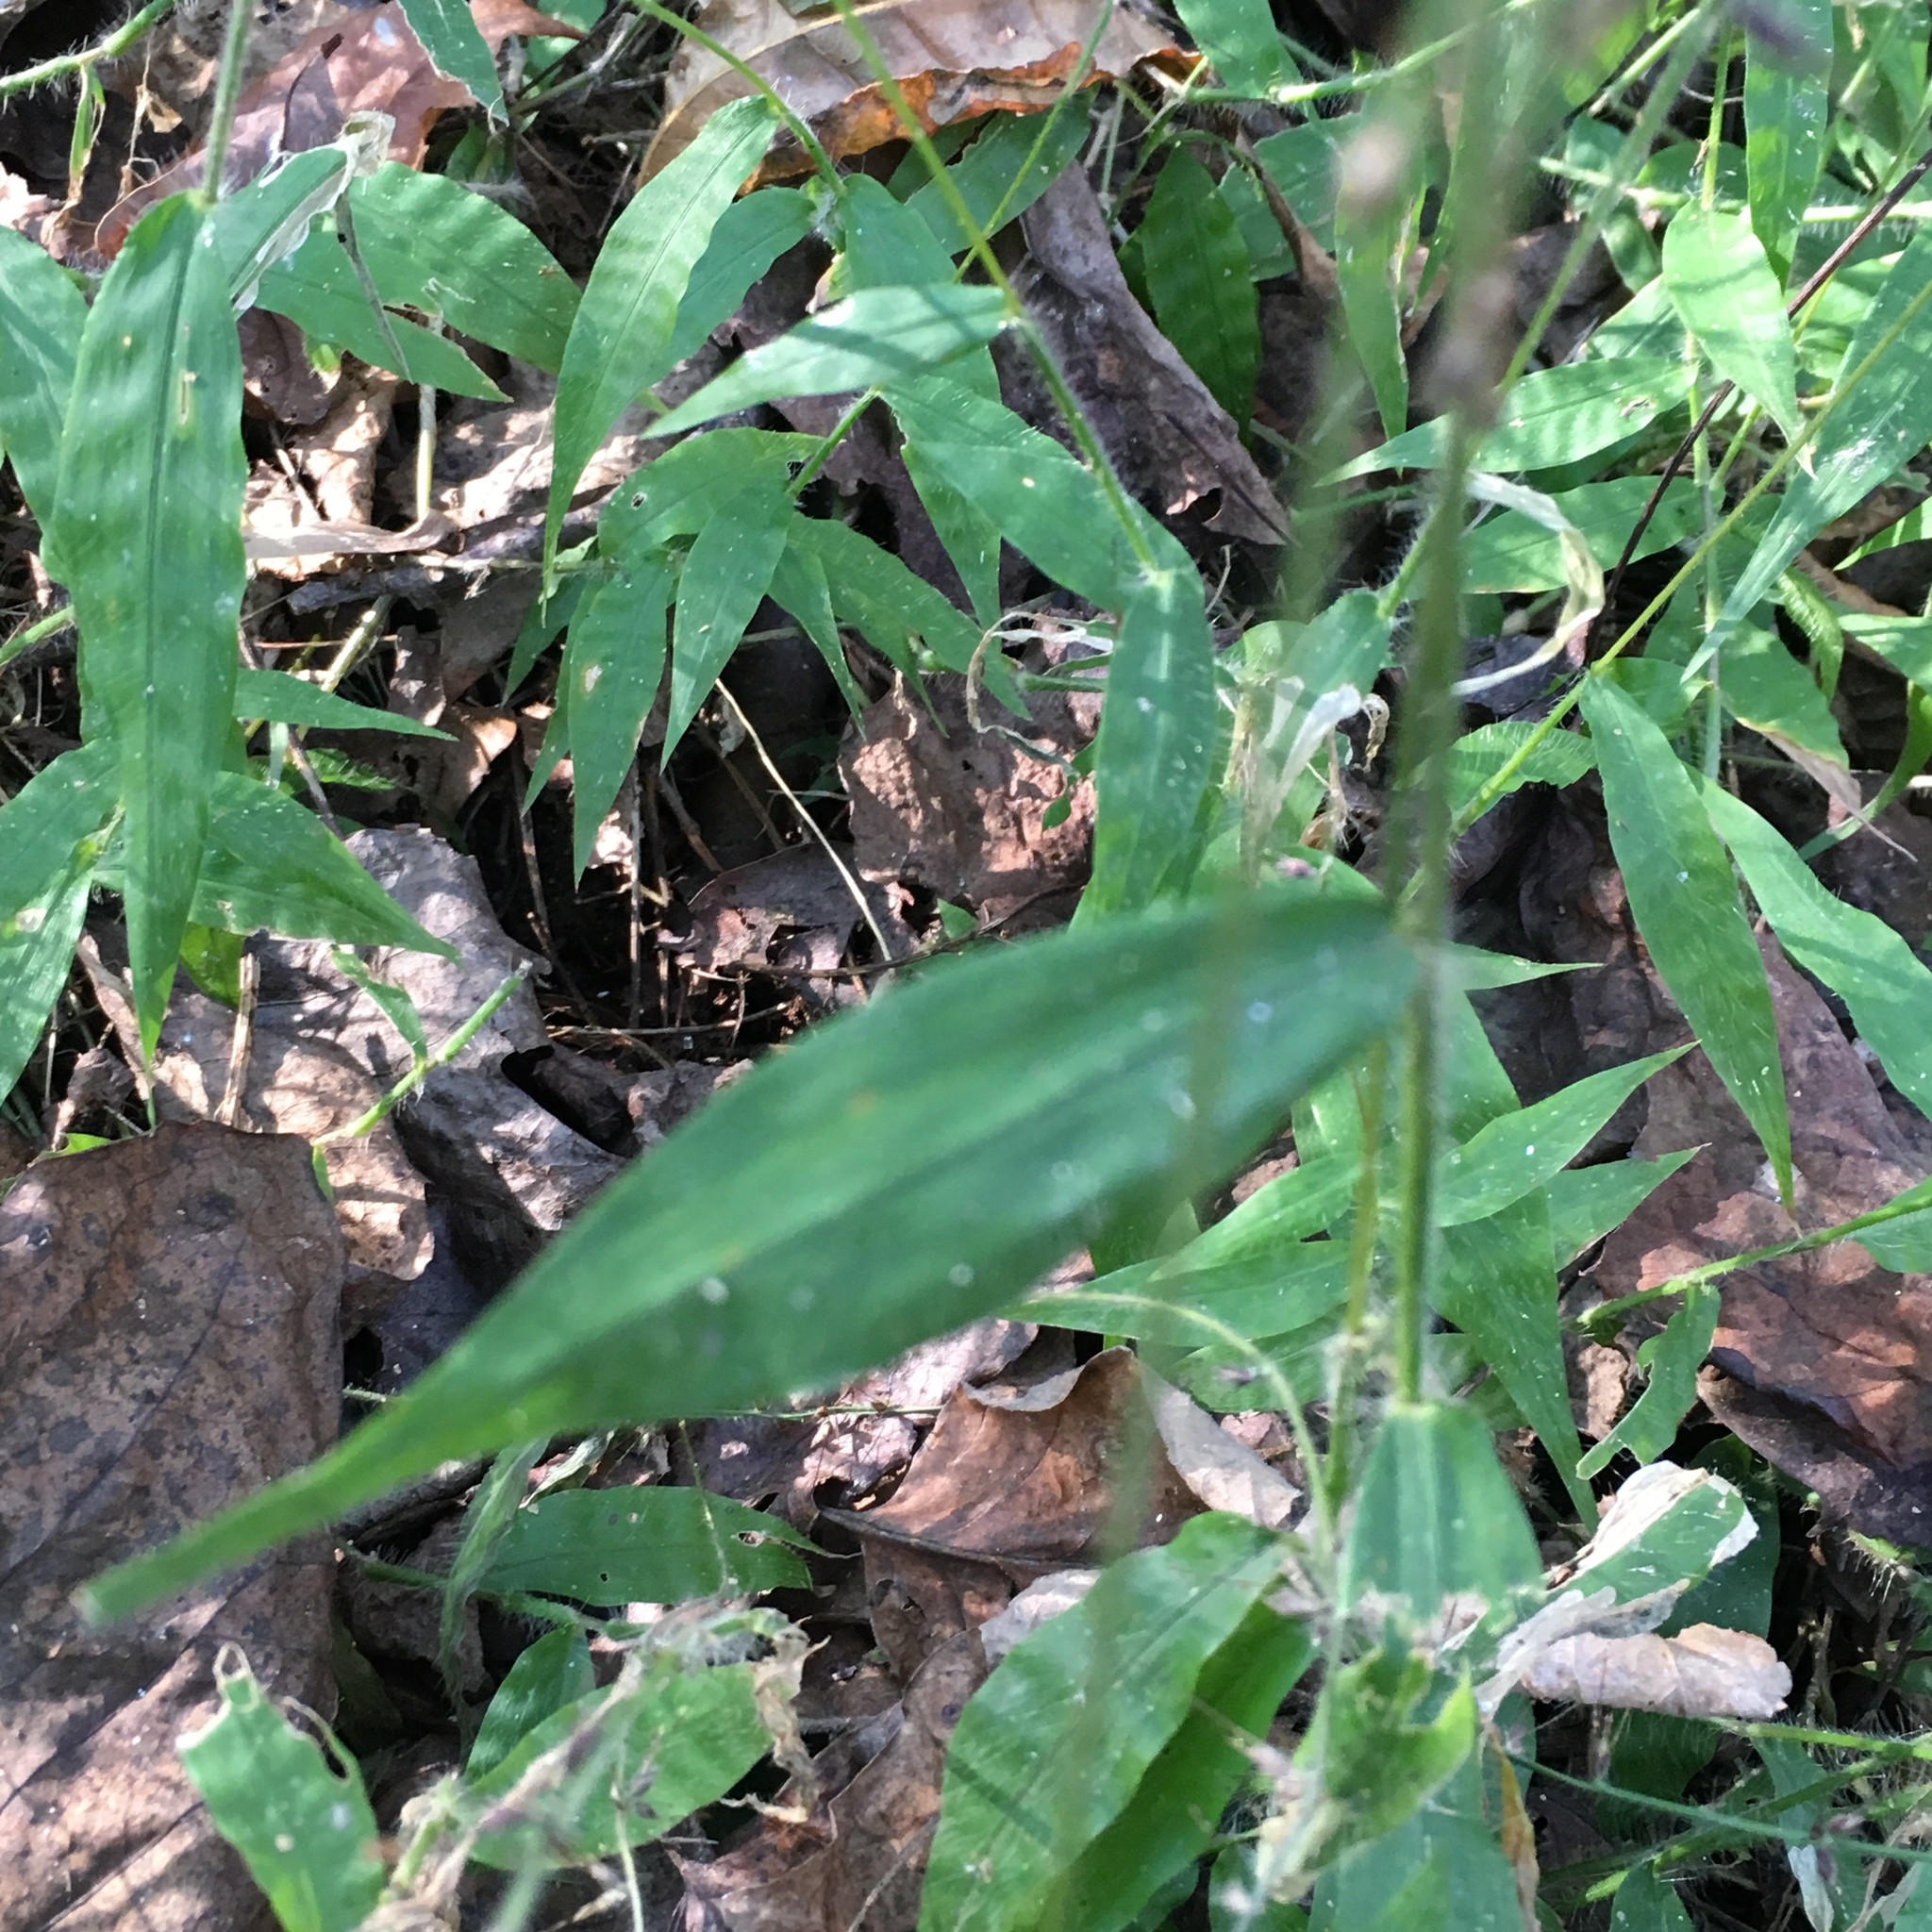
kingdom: Plantae
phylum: Tracheophyta
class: Liliopsida
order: Poales
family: Poaceae
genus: Oplismenus
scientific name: Oplismenus undulatifolius
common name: Wavyleaf basketgrass
